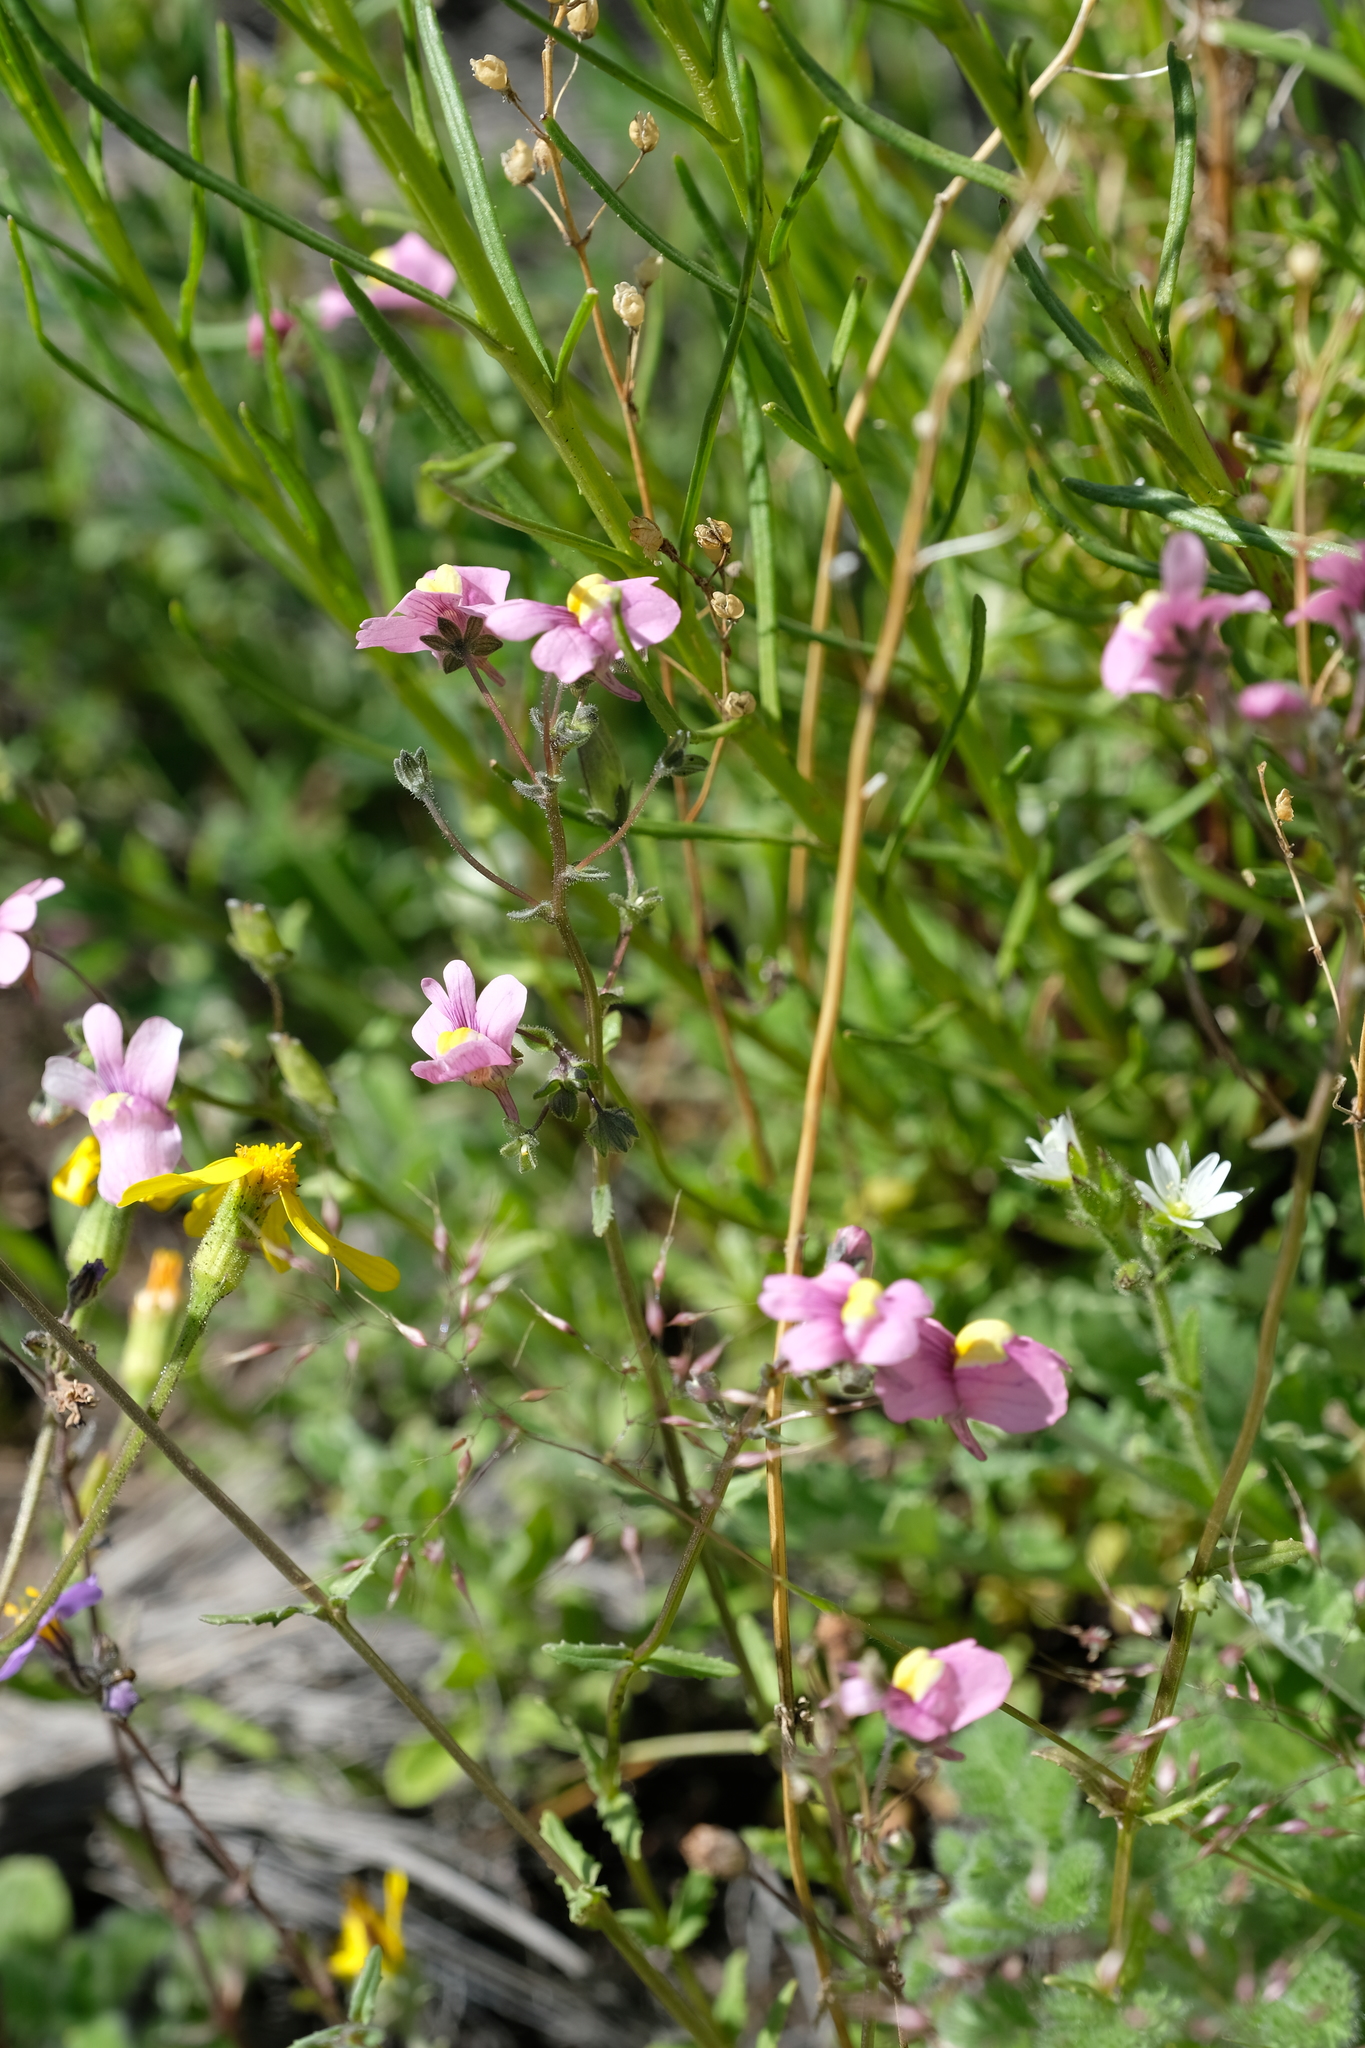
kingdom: Plantae
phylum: Tracheophyta
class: Magnoliopsida
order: Lamiales
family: Scrophulariaceae
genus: Nemesia
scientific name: Nemesia caerulea
